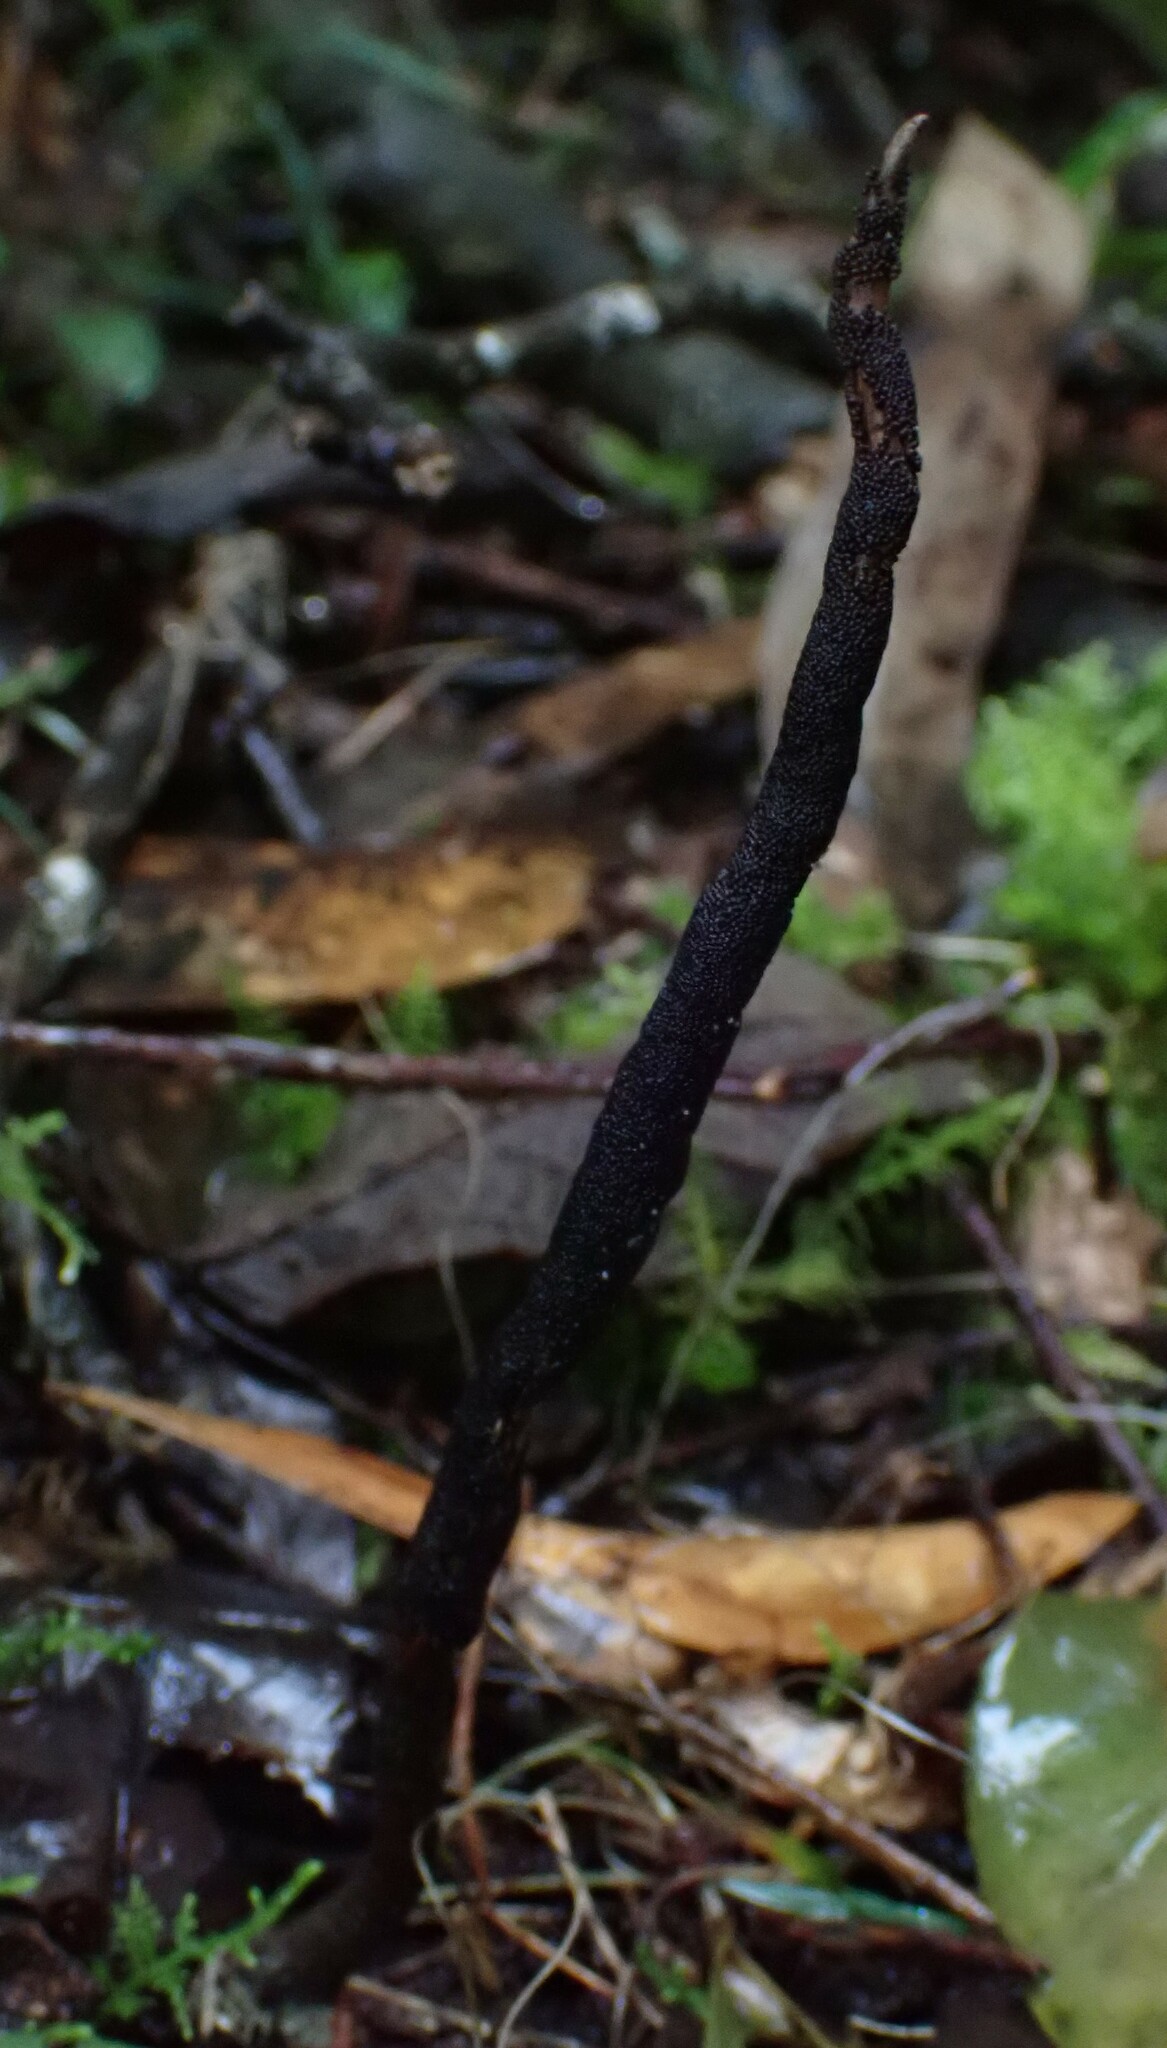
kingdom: Fungi
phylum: Ascomycota
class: Sordariomycetes
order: Hypocreales
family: Ophiocordycipitaceae
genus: Ophiocordyceps
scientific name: Ophiocordyceps robertsii
